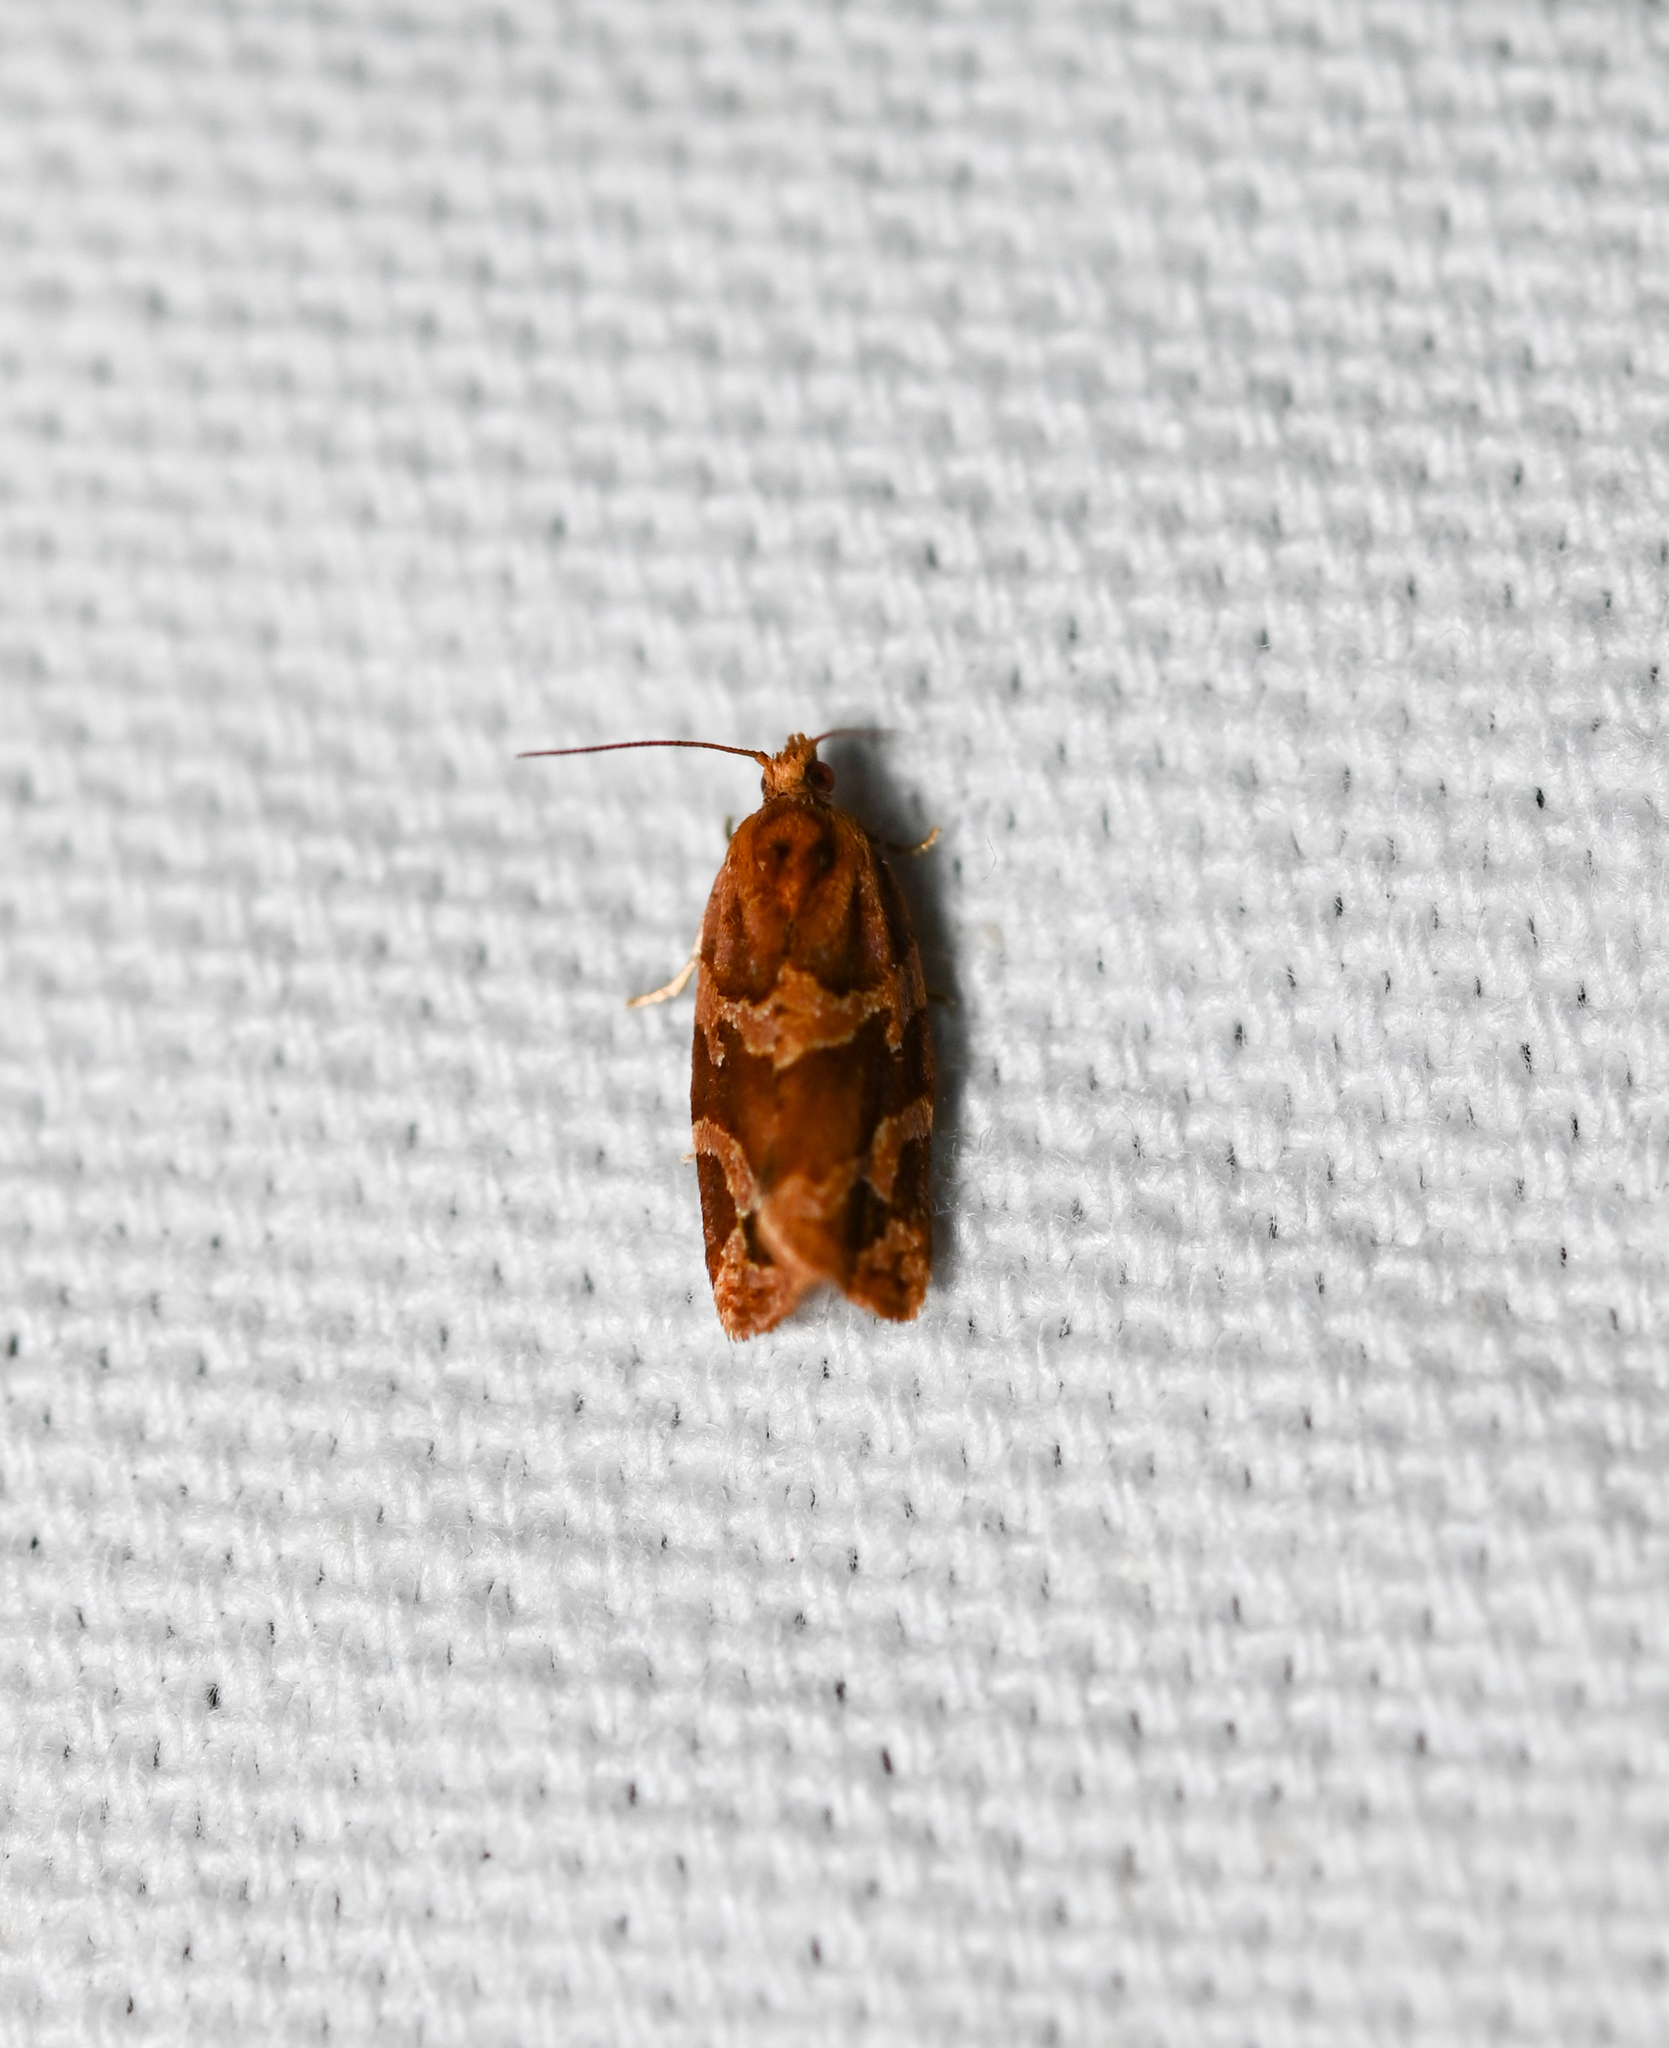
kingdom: Animalia
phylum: Arthropoda
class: Insecta
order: Lepidoptera
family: Tortricidae
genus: Argyrotaenia
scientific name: Argyrotaenia velutinana
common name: Red-banded leafroller moth
